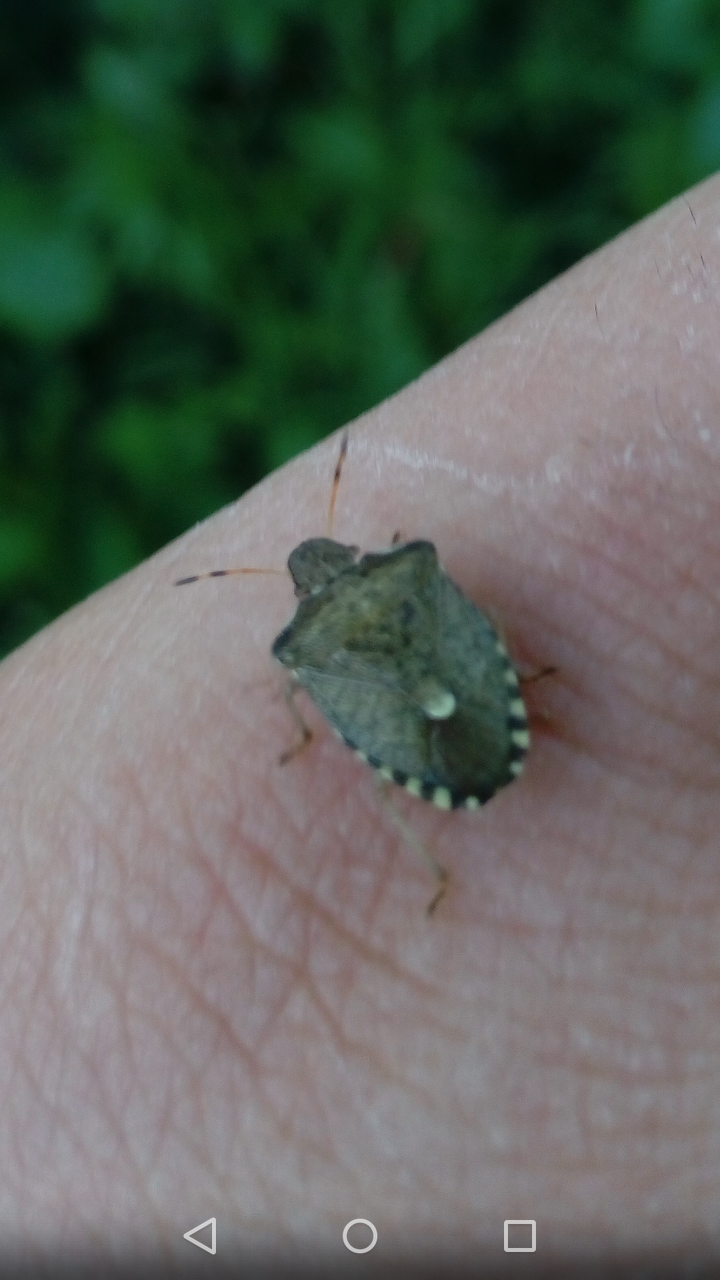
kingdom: Animalia
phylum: Arthropoda
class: Insecta
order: Hemiptera
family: Pentatomidae
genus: Holcostethus
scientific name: Holcostethus strictus
